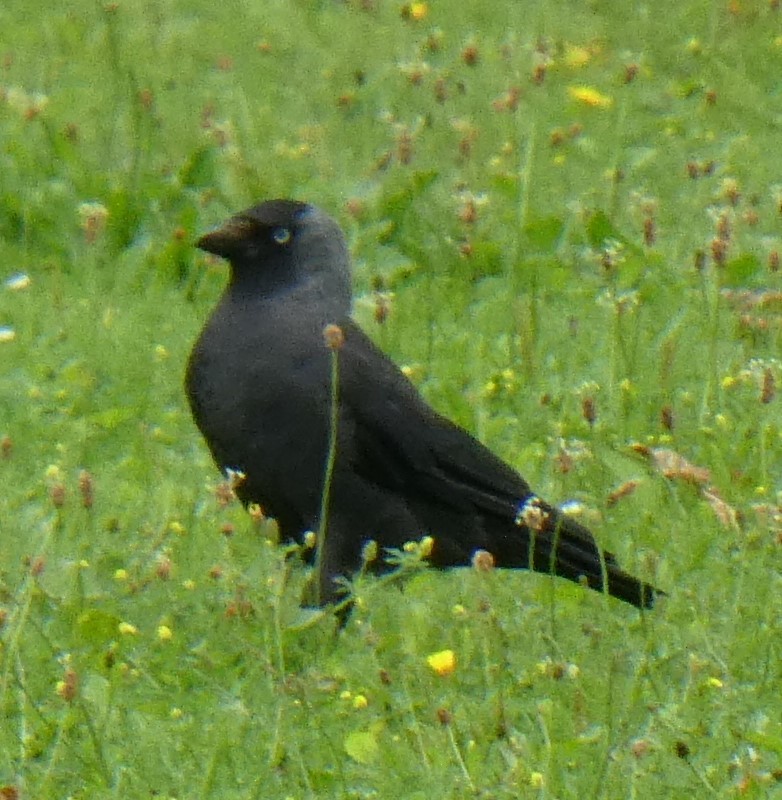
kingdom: Animalia
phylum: Chordata
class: Aves
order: Passeriformes
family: Corvidae
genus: Coloeus
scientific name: Coloeus monedula
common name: Western jackdaw
